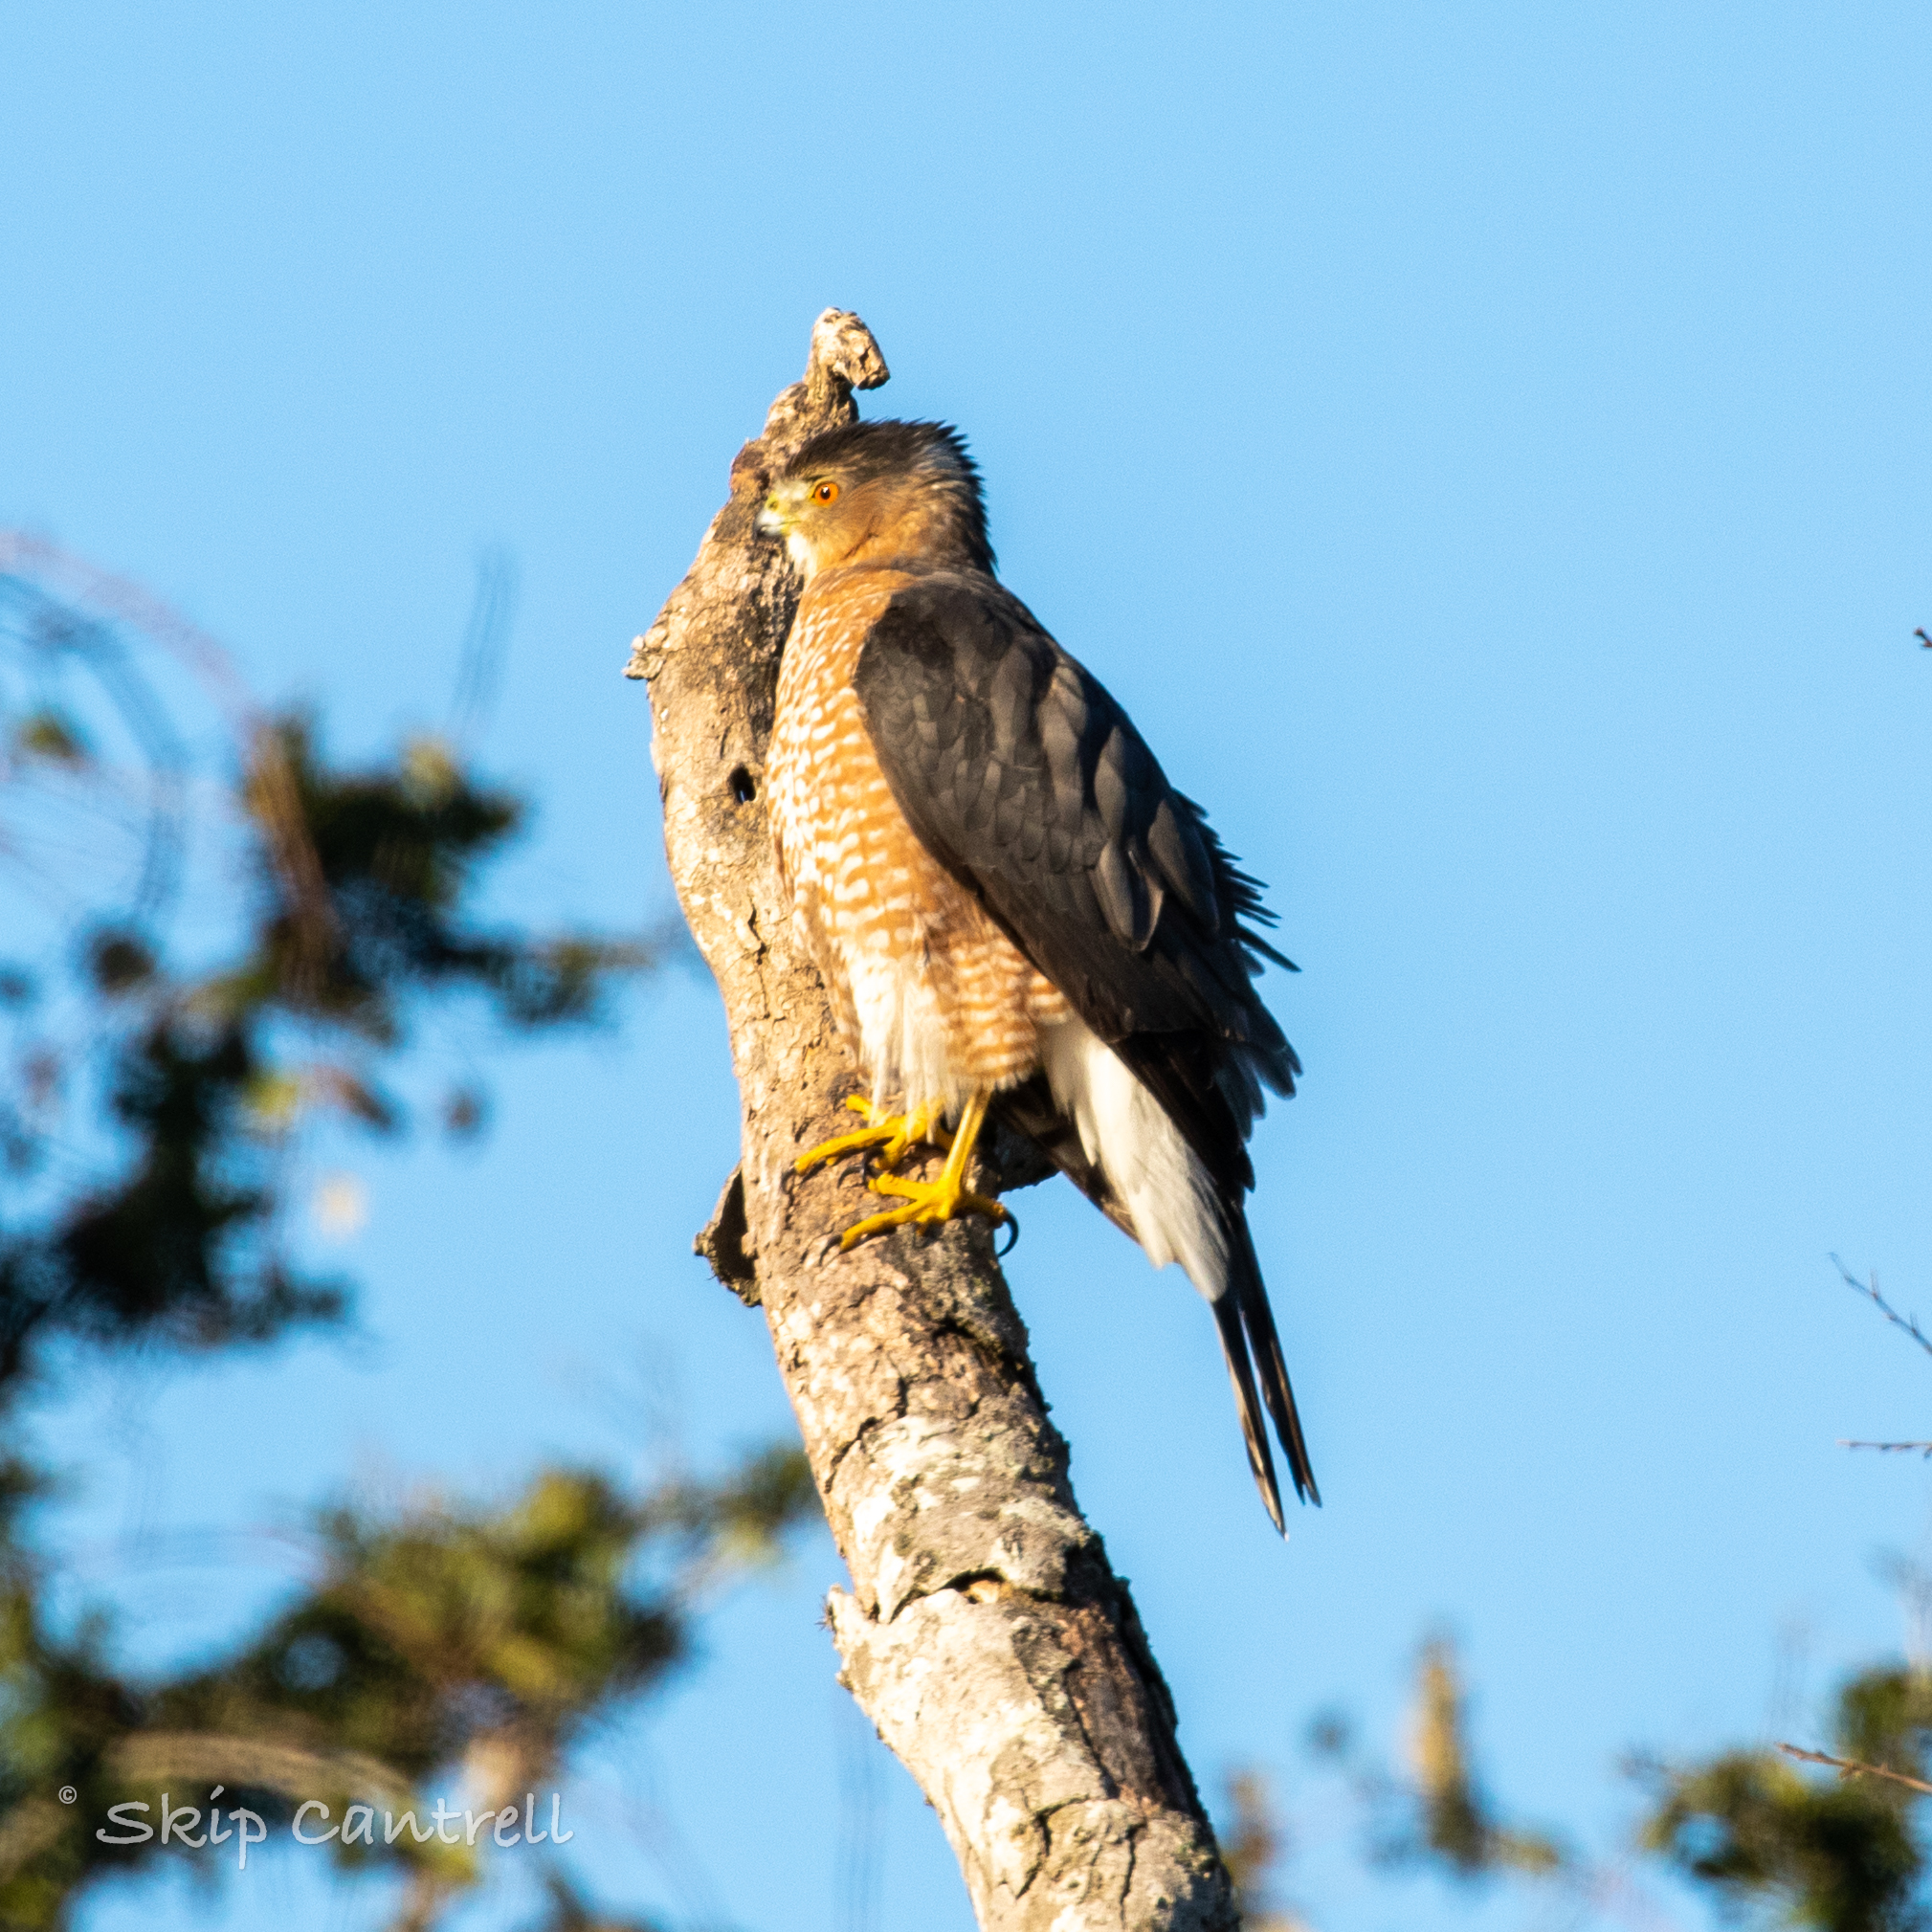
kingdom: Animalia
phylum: Chordata
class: Aves
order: Accipitriformes
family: Accipitridae
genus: Accipiter
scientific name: Accipiter cooperii
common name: Cooper's hawk
